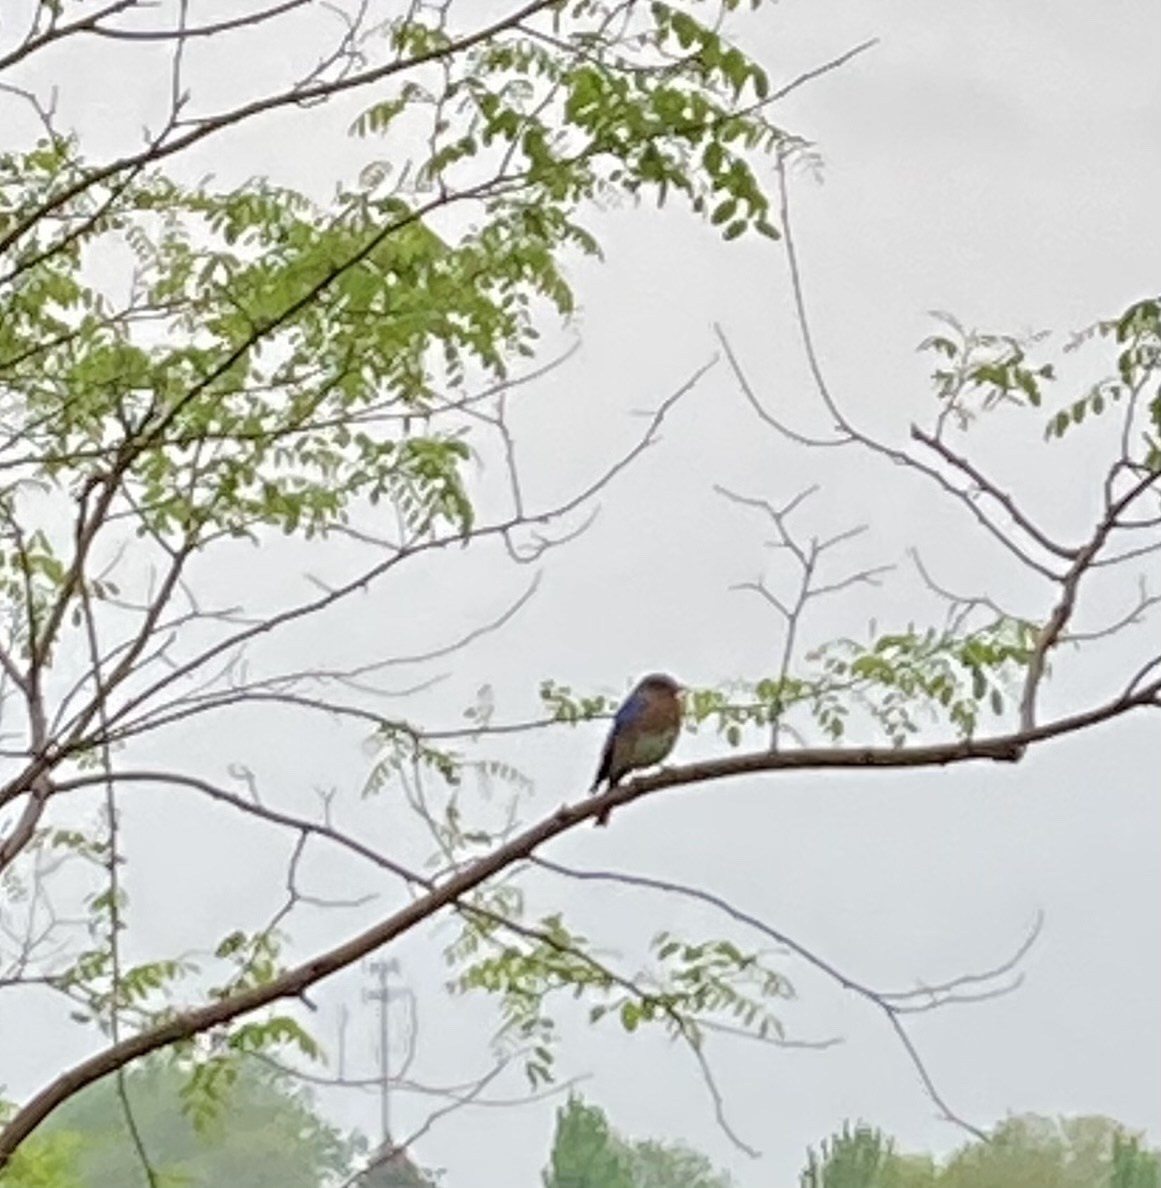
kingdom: Animalia
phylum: Chordata
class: Aves
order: Passeriformes
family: Turdidae
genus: Sialia
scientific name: Sialia sialis
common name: Eastern bluebird
